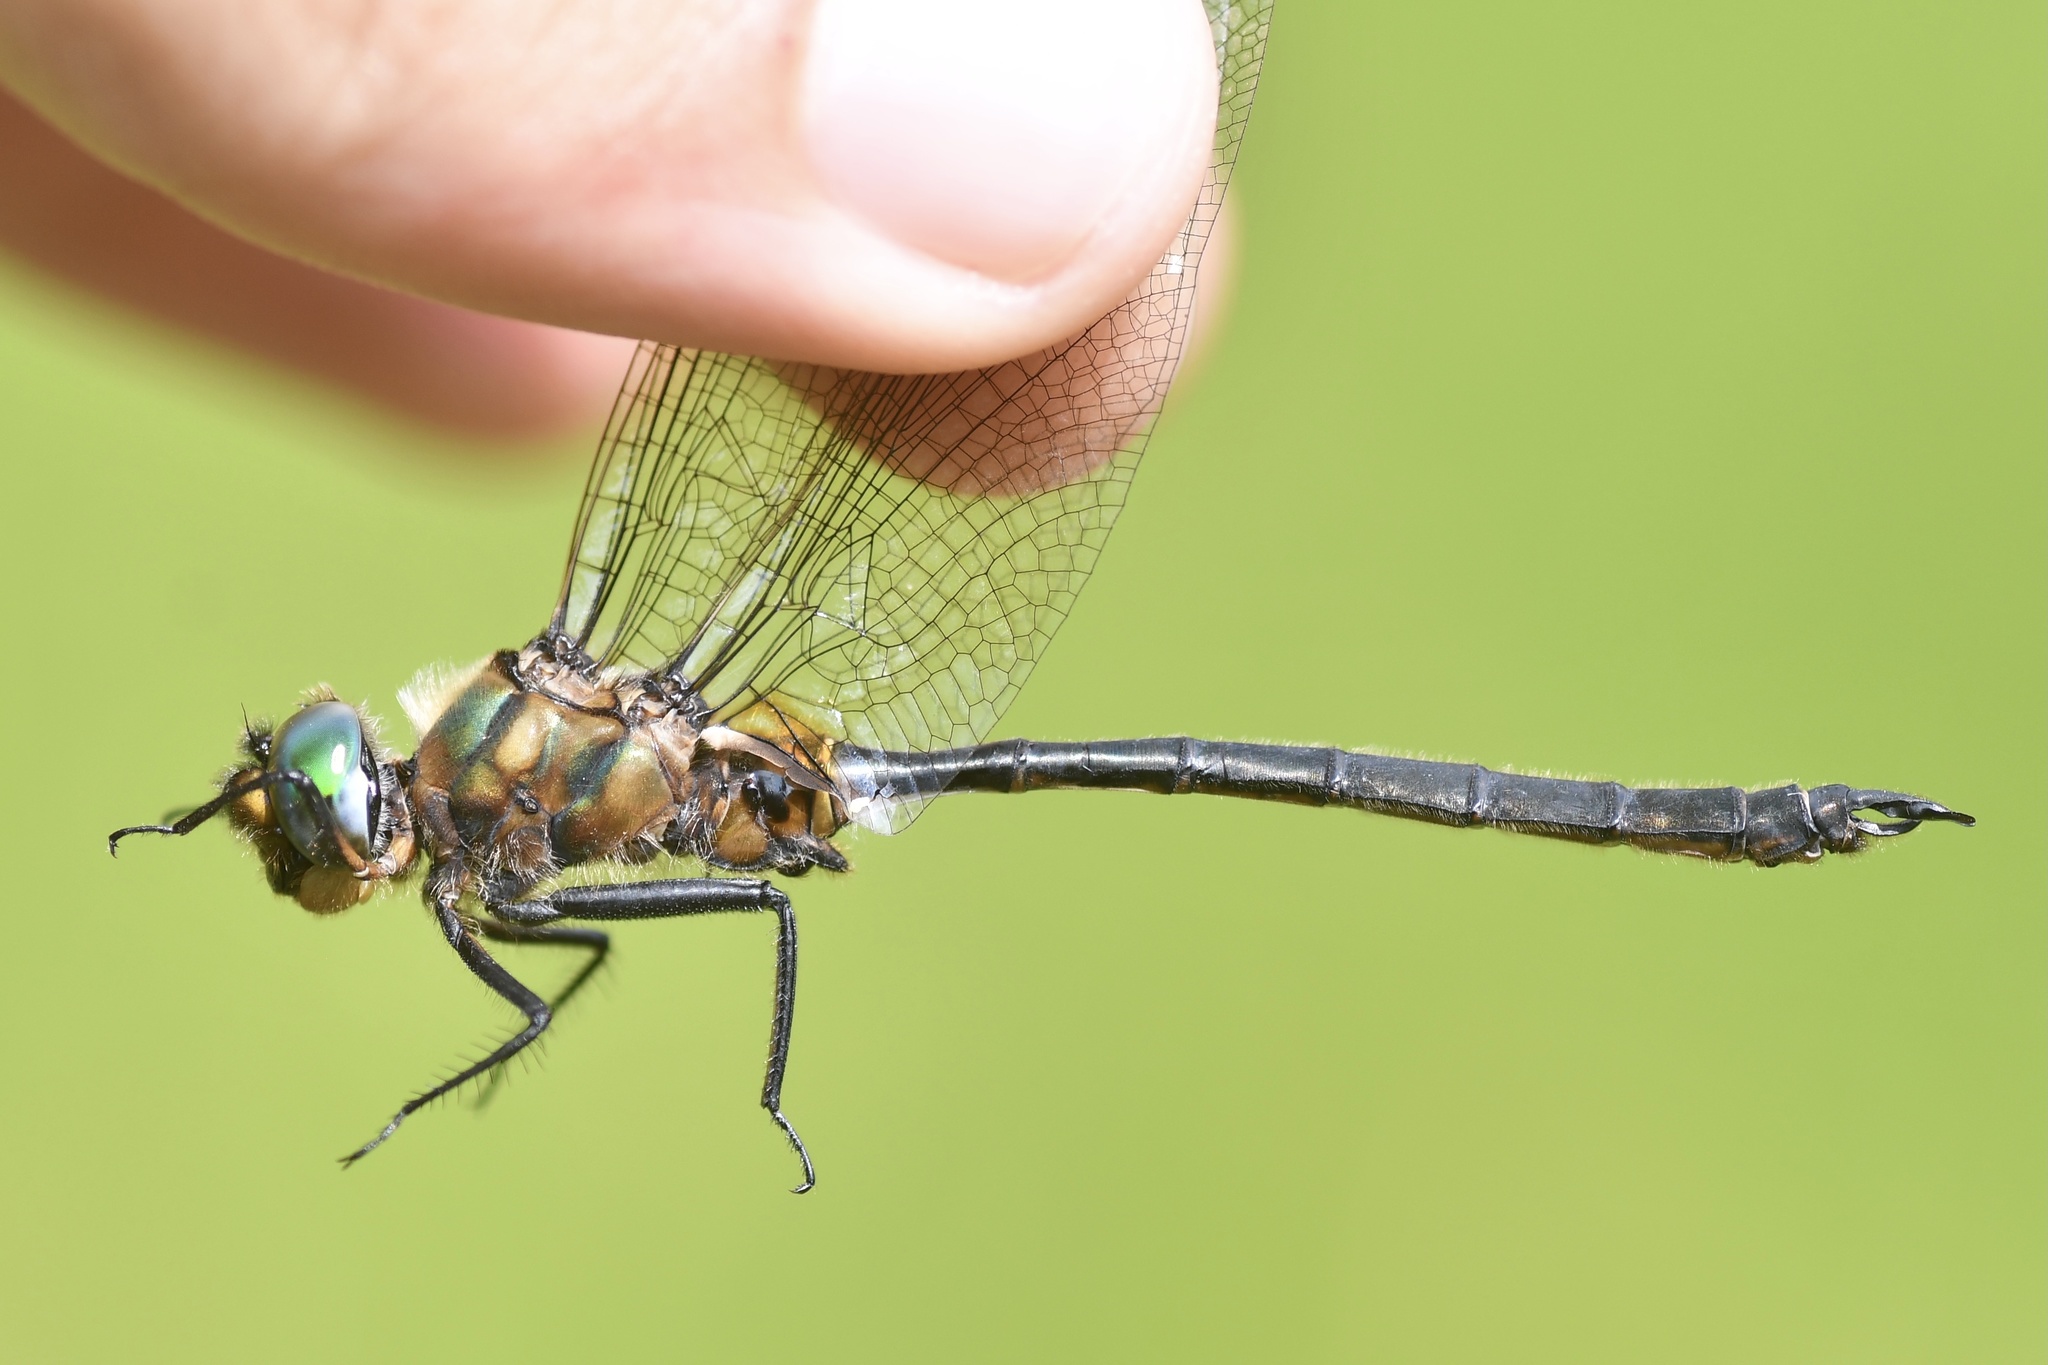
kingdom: Animalia
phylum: Arthropoda
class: Insecta
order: Odonata
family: Corduliidae
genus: Somatochlora
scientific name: Somatochlora kennedyi
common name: Kennedy's emerald
